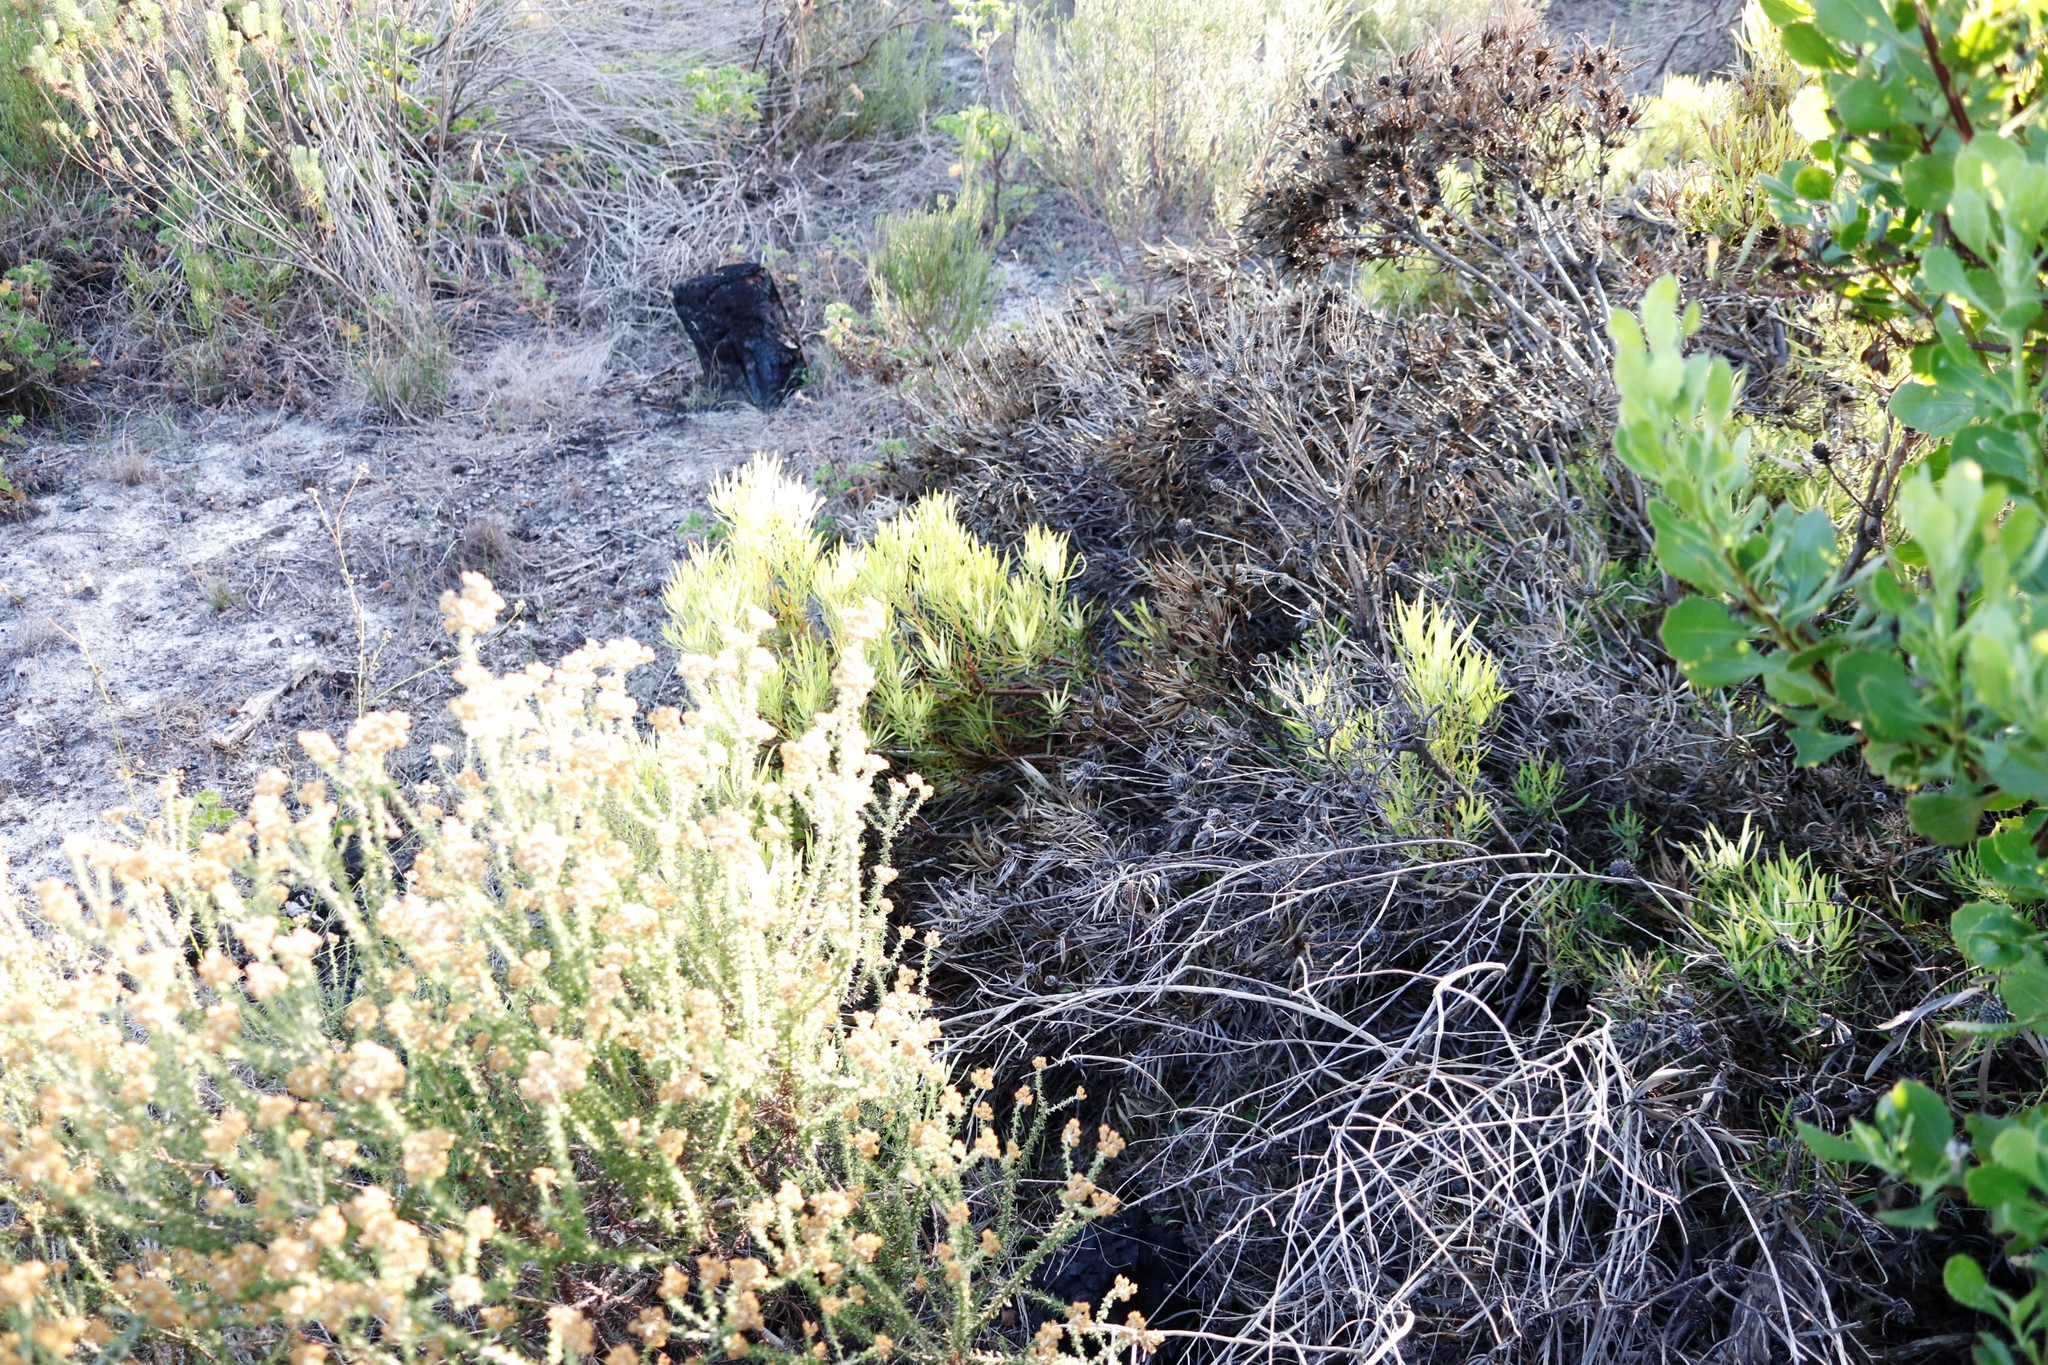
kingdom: Plantae
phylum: Tracheophyta
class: Magnoliopsida
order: Proteales
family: Proteaceae
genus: Leucadendron
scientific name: Leucadendron salignum
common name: Common sunshine conebush
